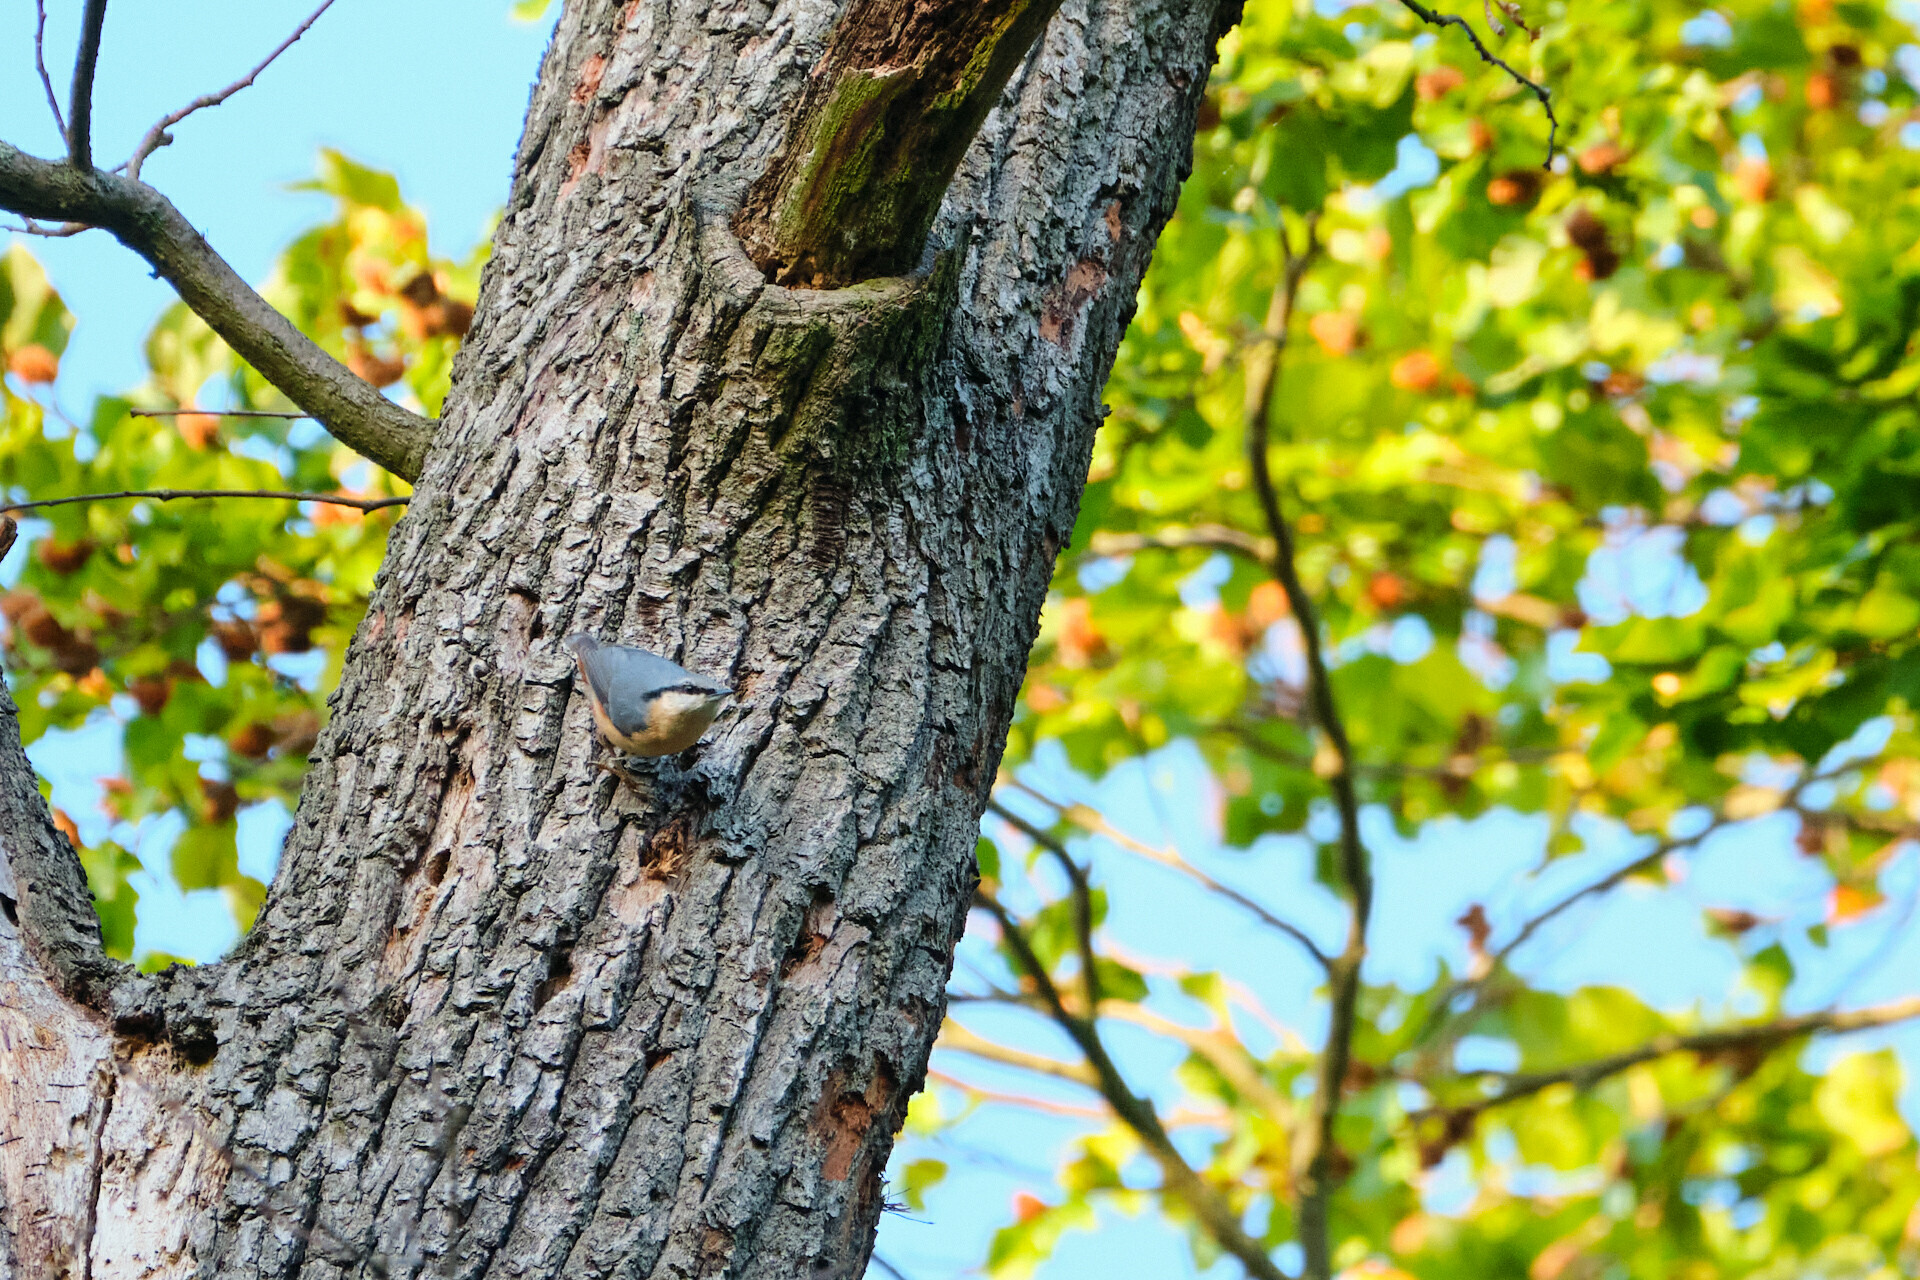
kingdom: Animalia
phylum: Chordata
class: Aves
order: Passeriformes
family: Sittidae
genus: Sitta
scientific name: Sitta europaea
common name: Eurasian nuthatch
